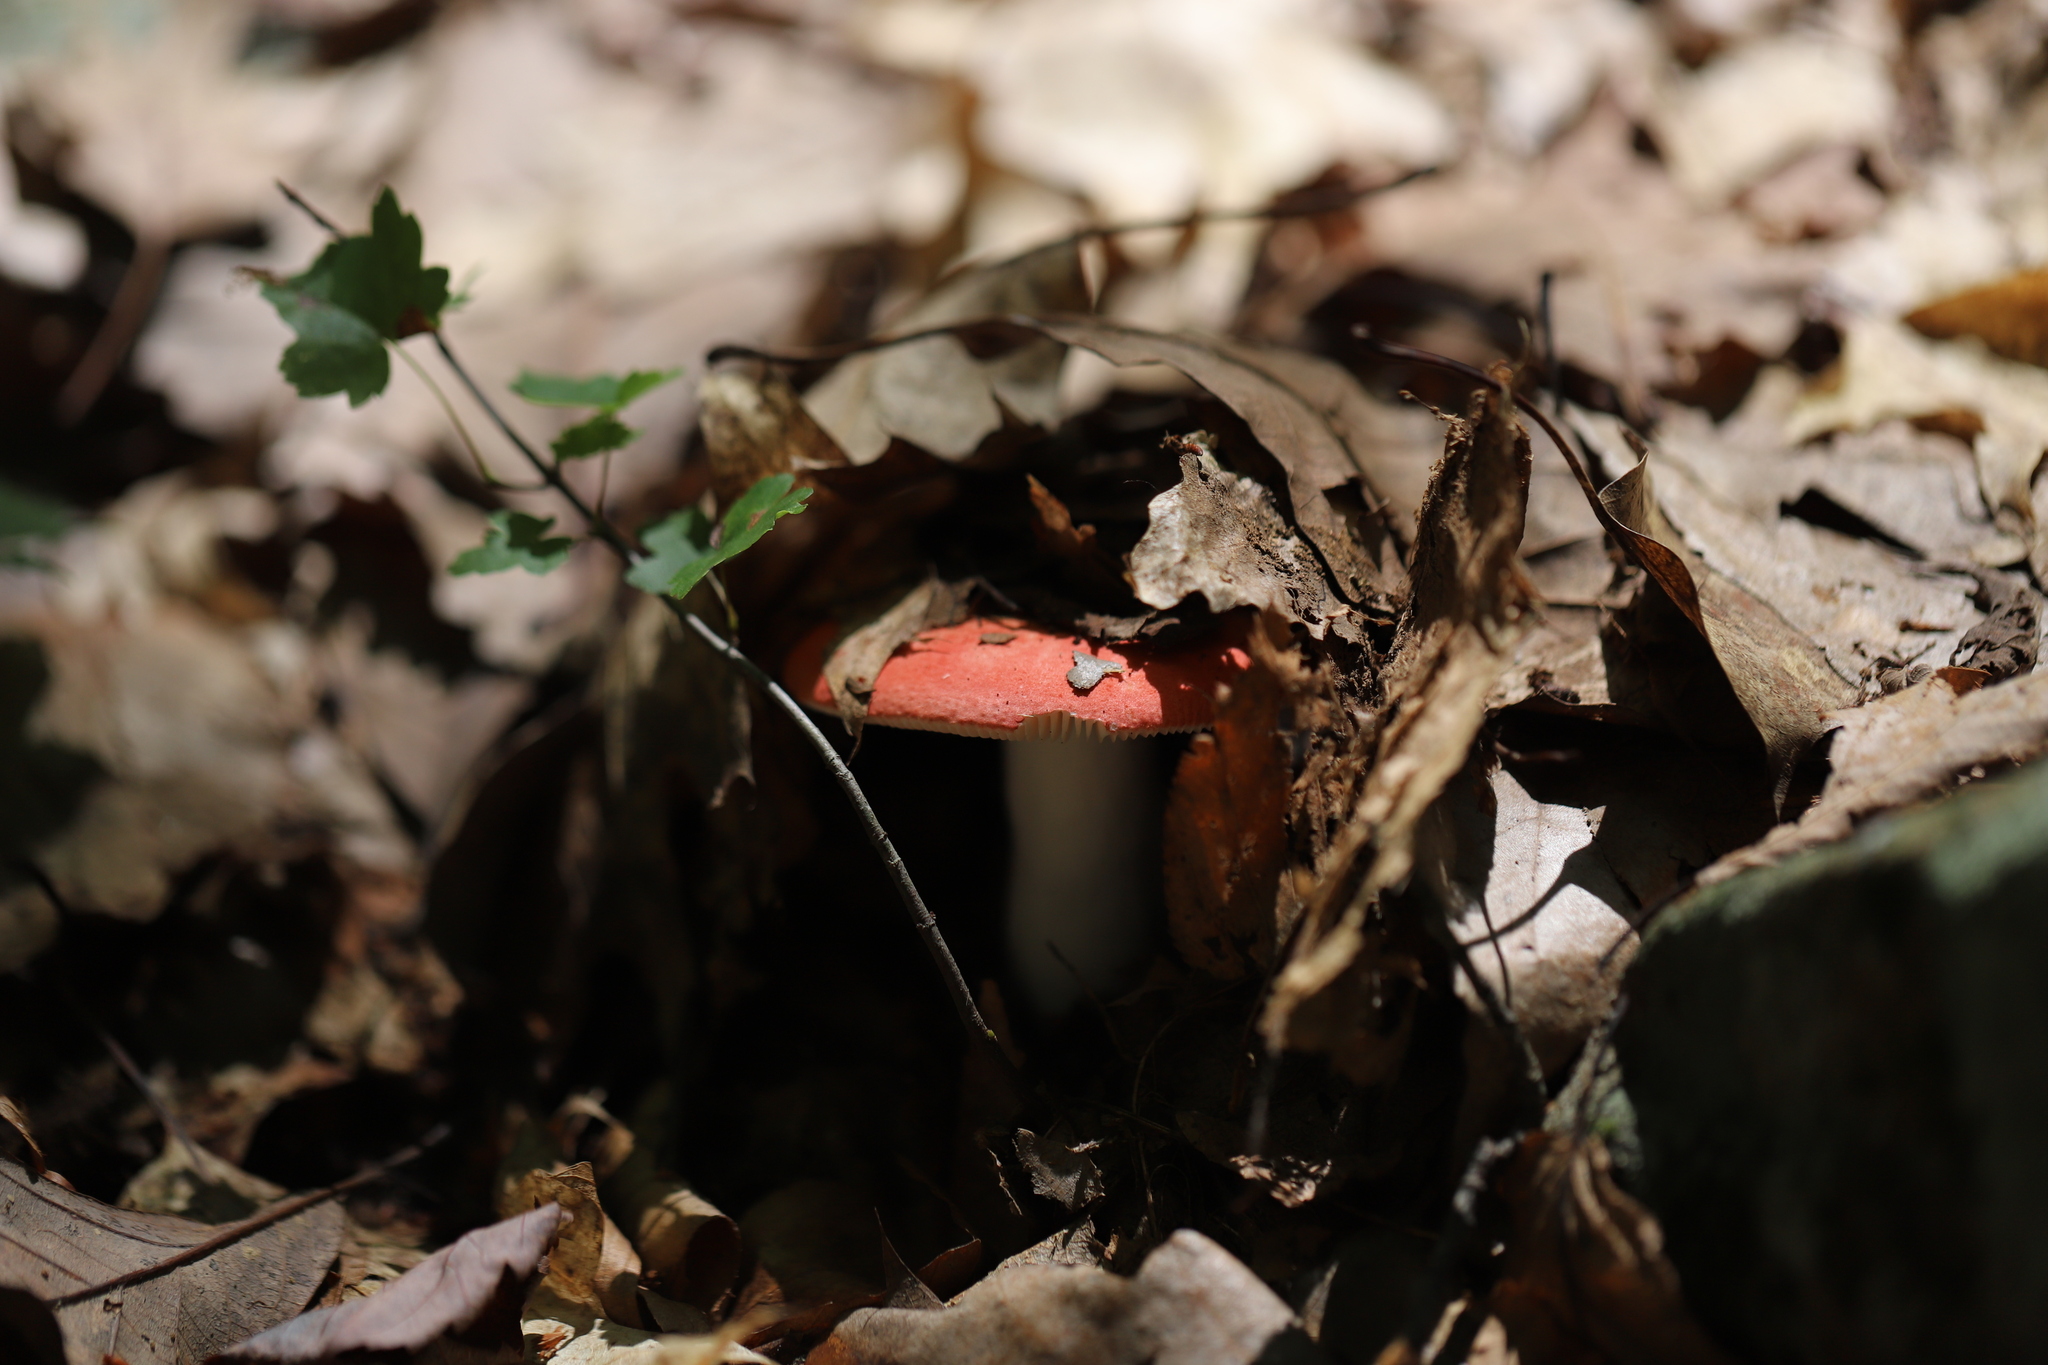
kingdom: Fungi
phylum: Basidiomycota
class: Agaricomycetes
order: Russulales
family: Russulaceae
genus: Russula
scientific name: Russula
